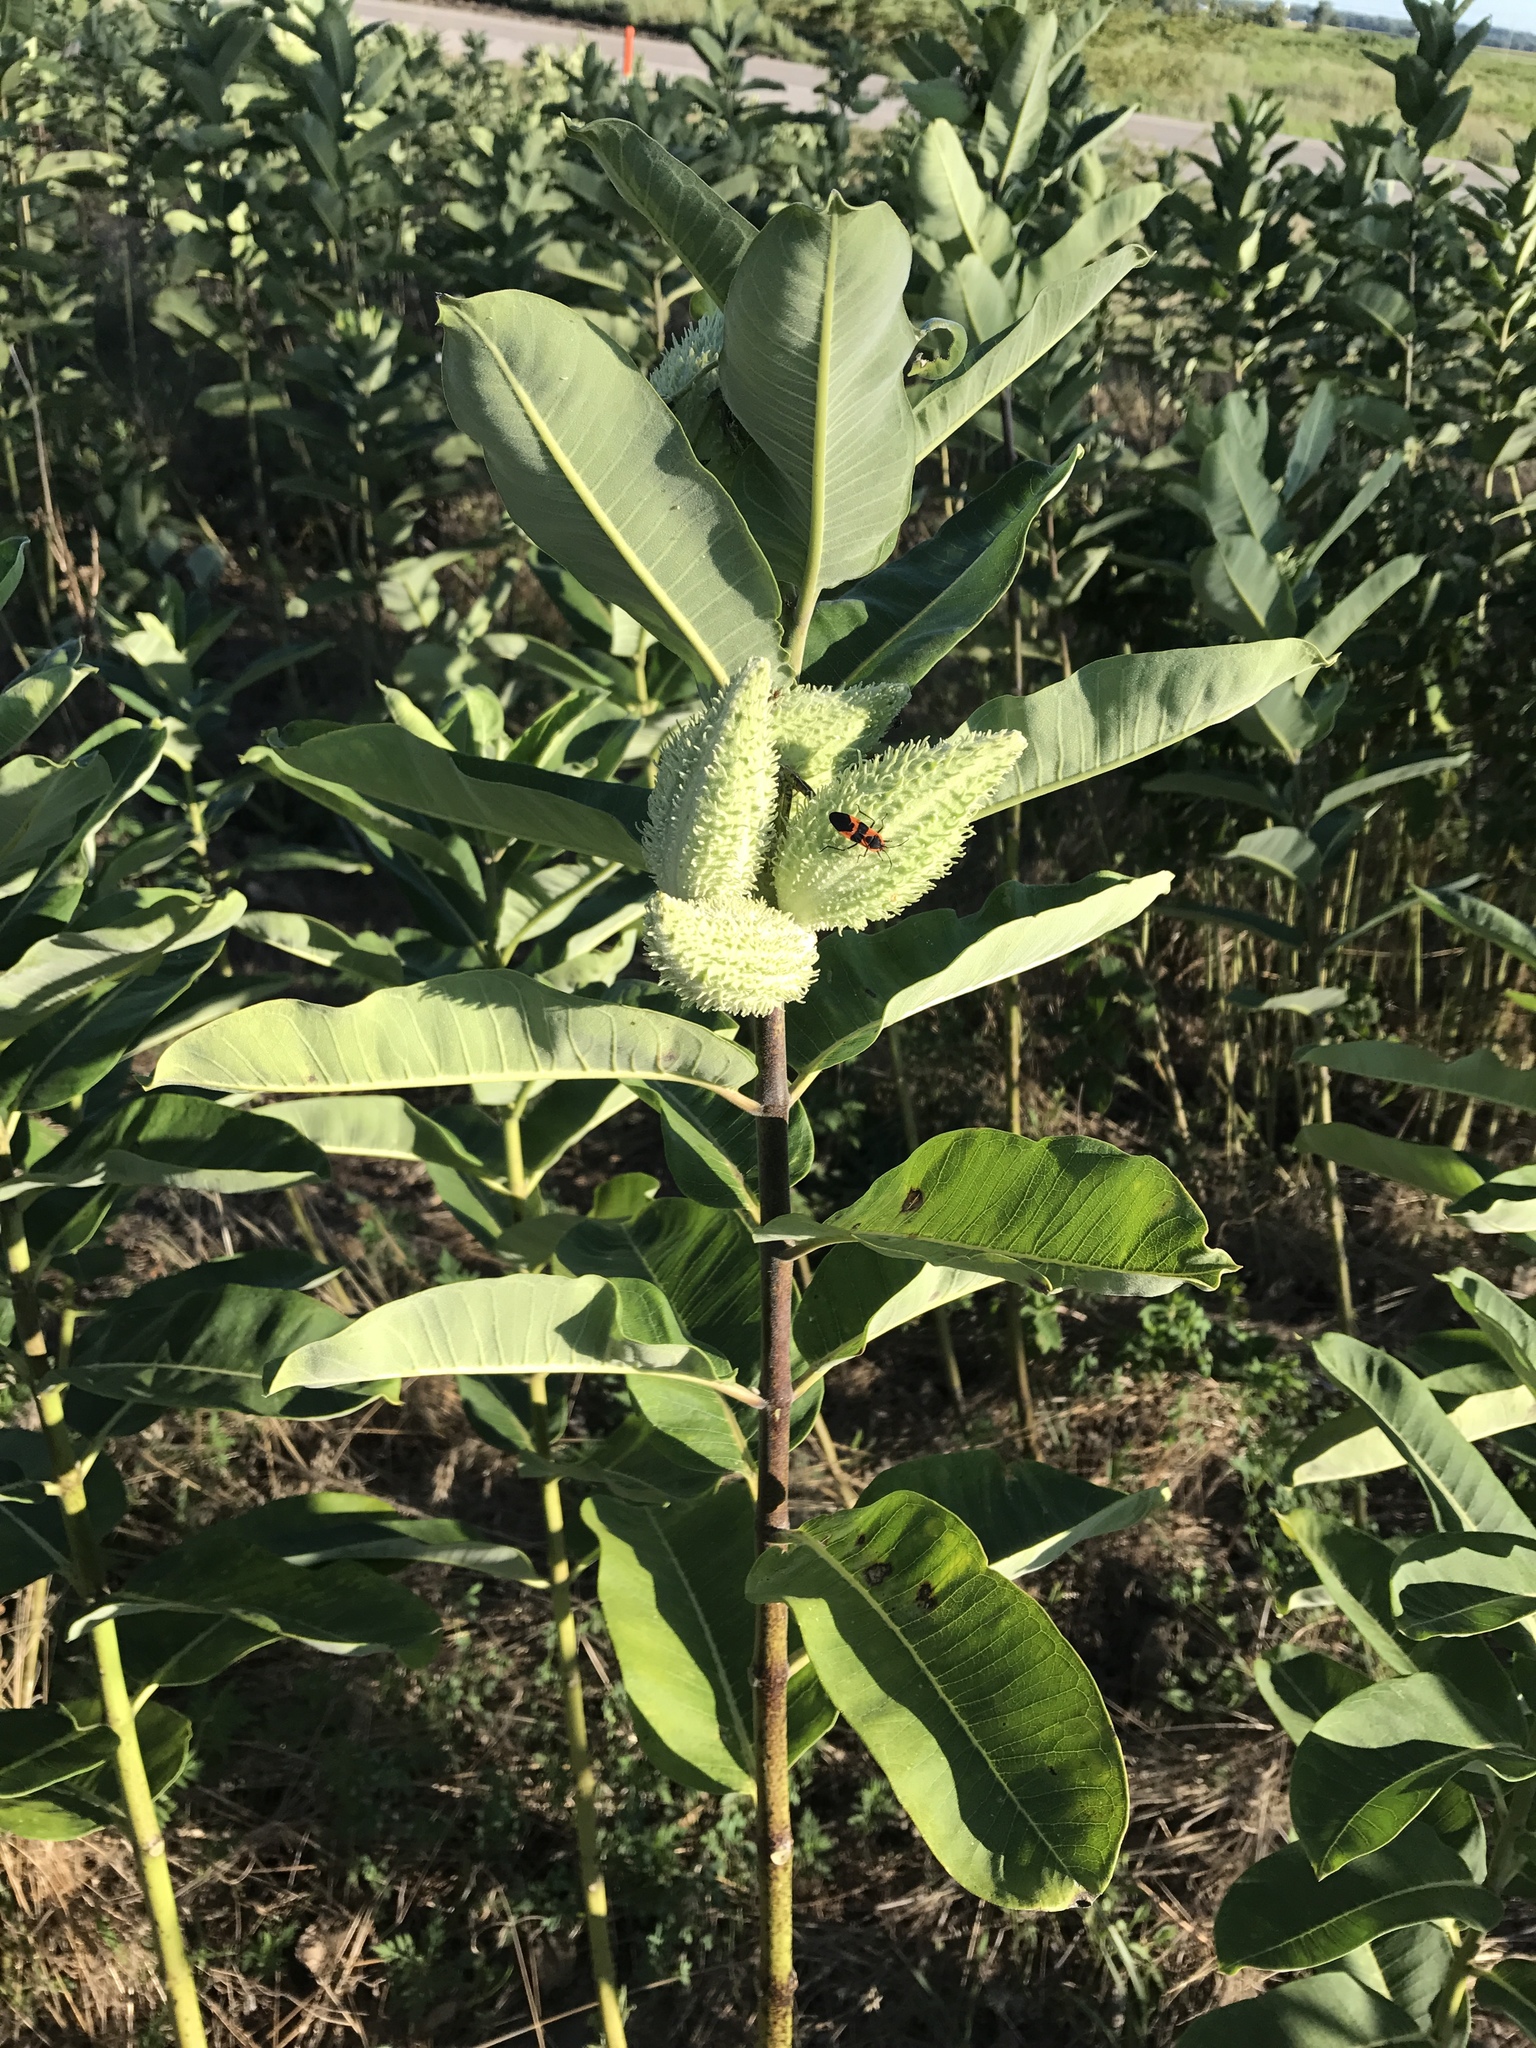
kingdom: Plantae
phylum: Tracheophyta
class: Magnoliopsida
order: Gentianales
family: Apocynaceae
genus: Asclepias
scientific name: Asclepias syriaca
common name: Common milkweed
